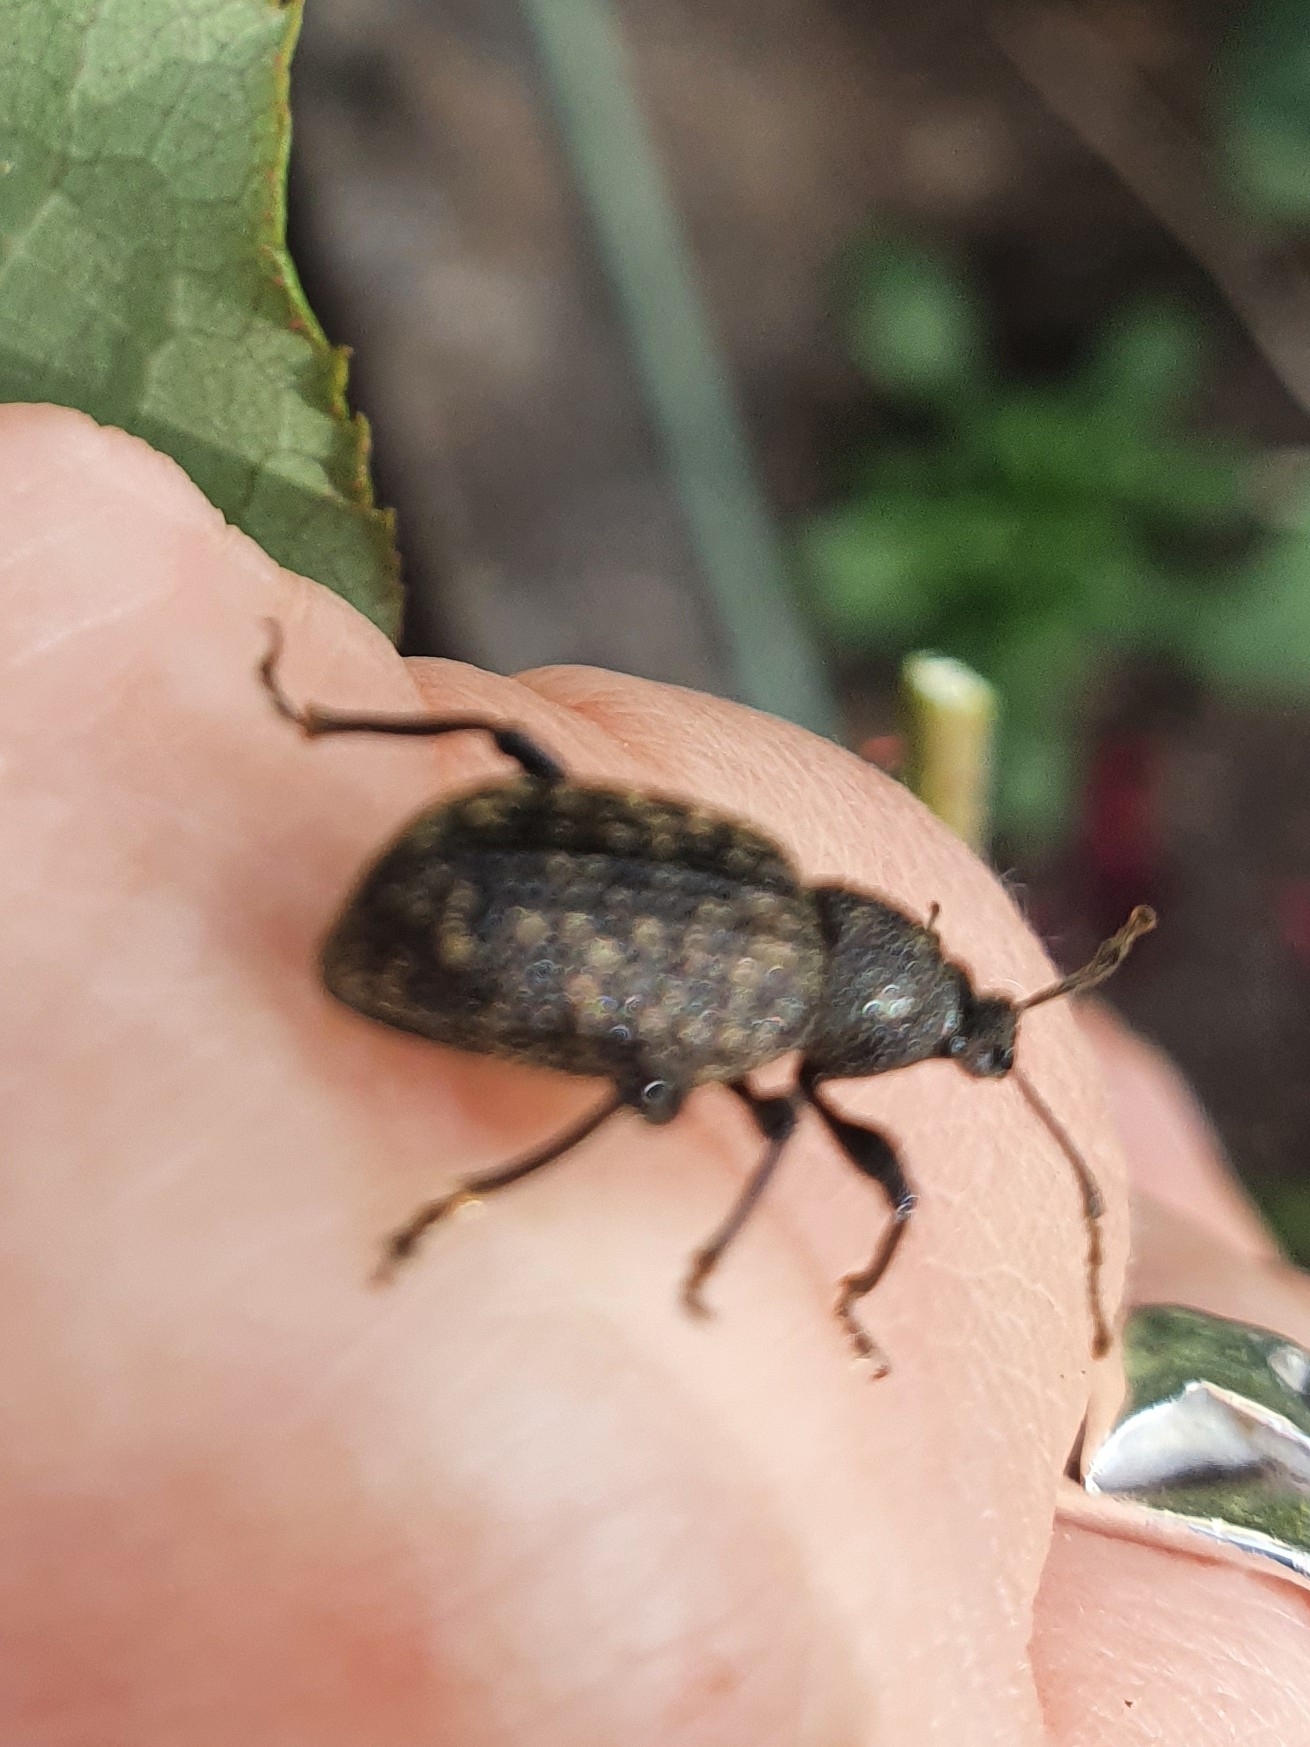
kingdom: Animalia
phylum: Arthropoda
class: Insecta
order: Coleoptera
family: Curculionidae
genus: Otiorhynchus
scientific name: Otiorhynchus sulcatus
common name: Black vine weevil
